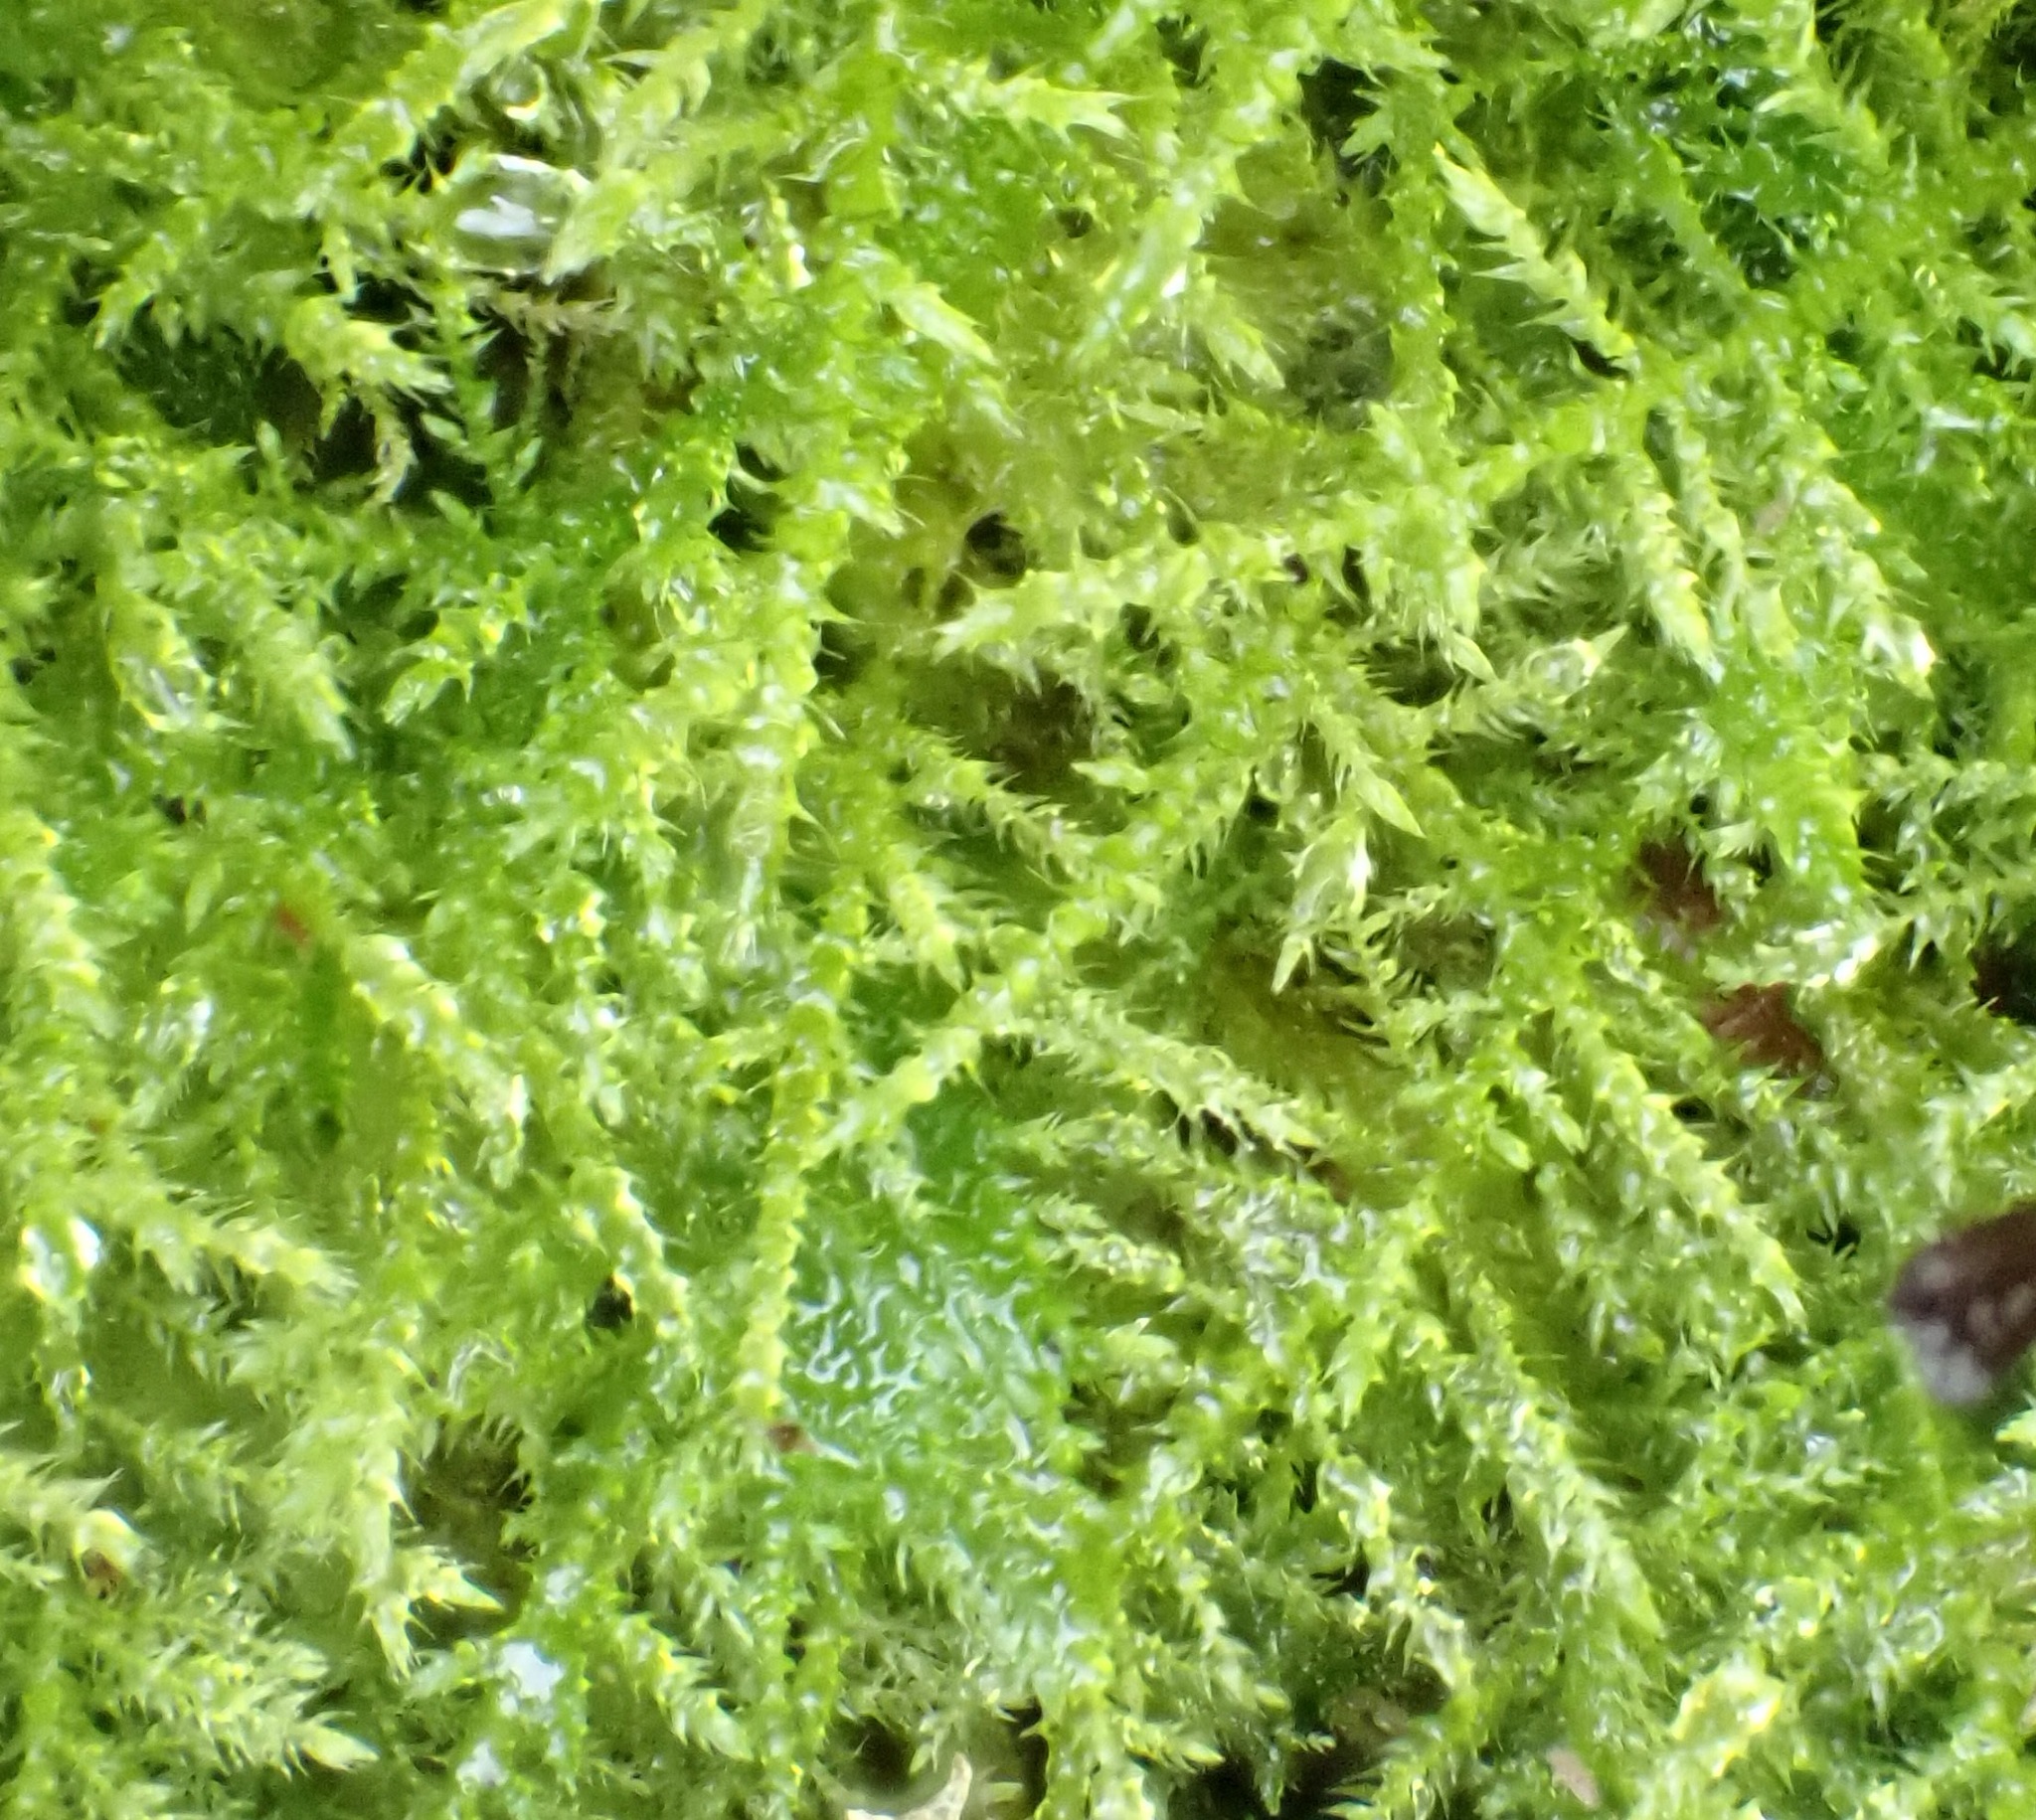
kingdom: Plantae
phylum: Bryophyta
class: Bryopsida
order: Hypnales
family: Brachytheciaceae
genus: Kindbergia
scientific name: Kindbergia praelonga
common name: Slender beaked moss
